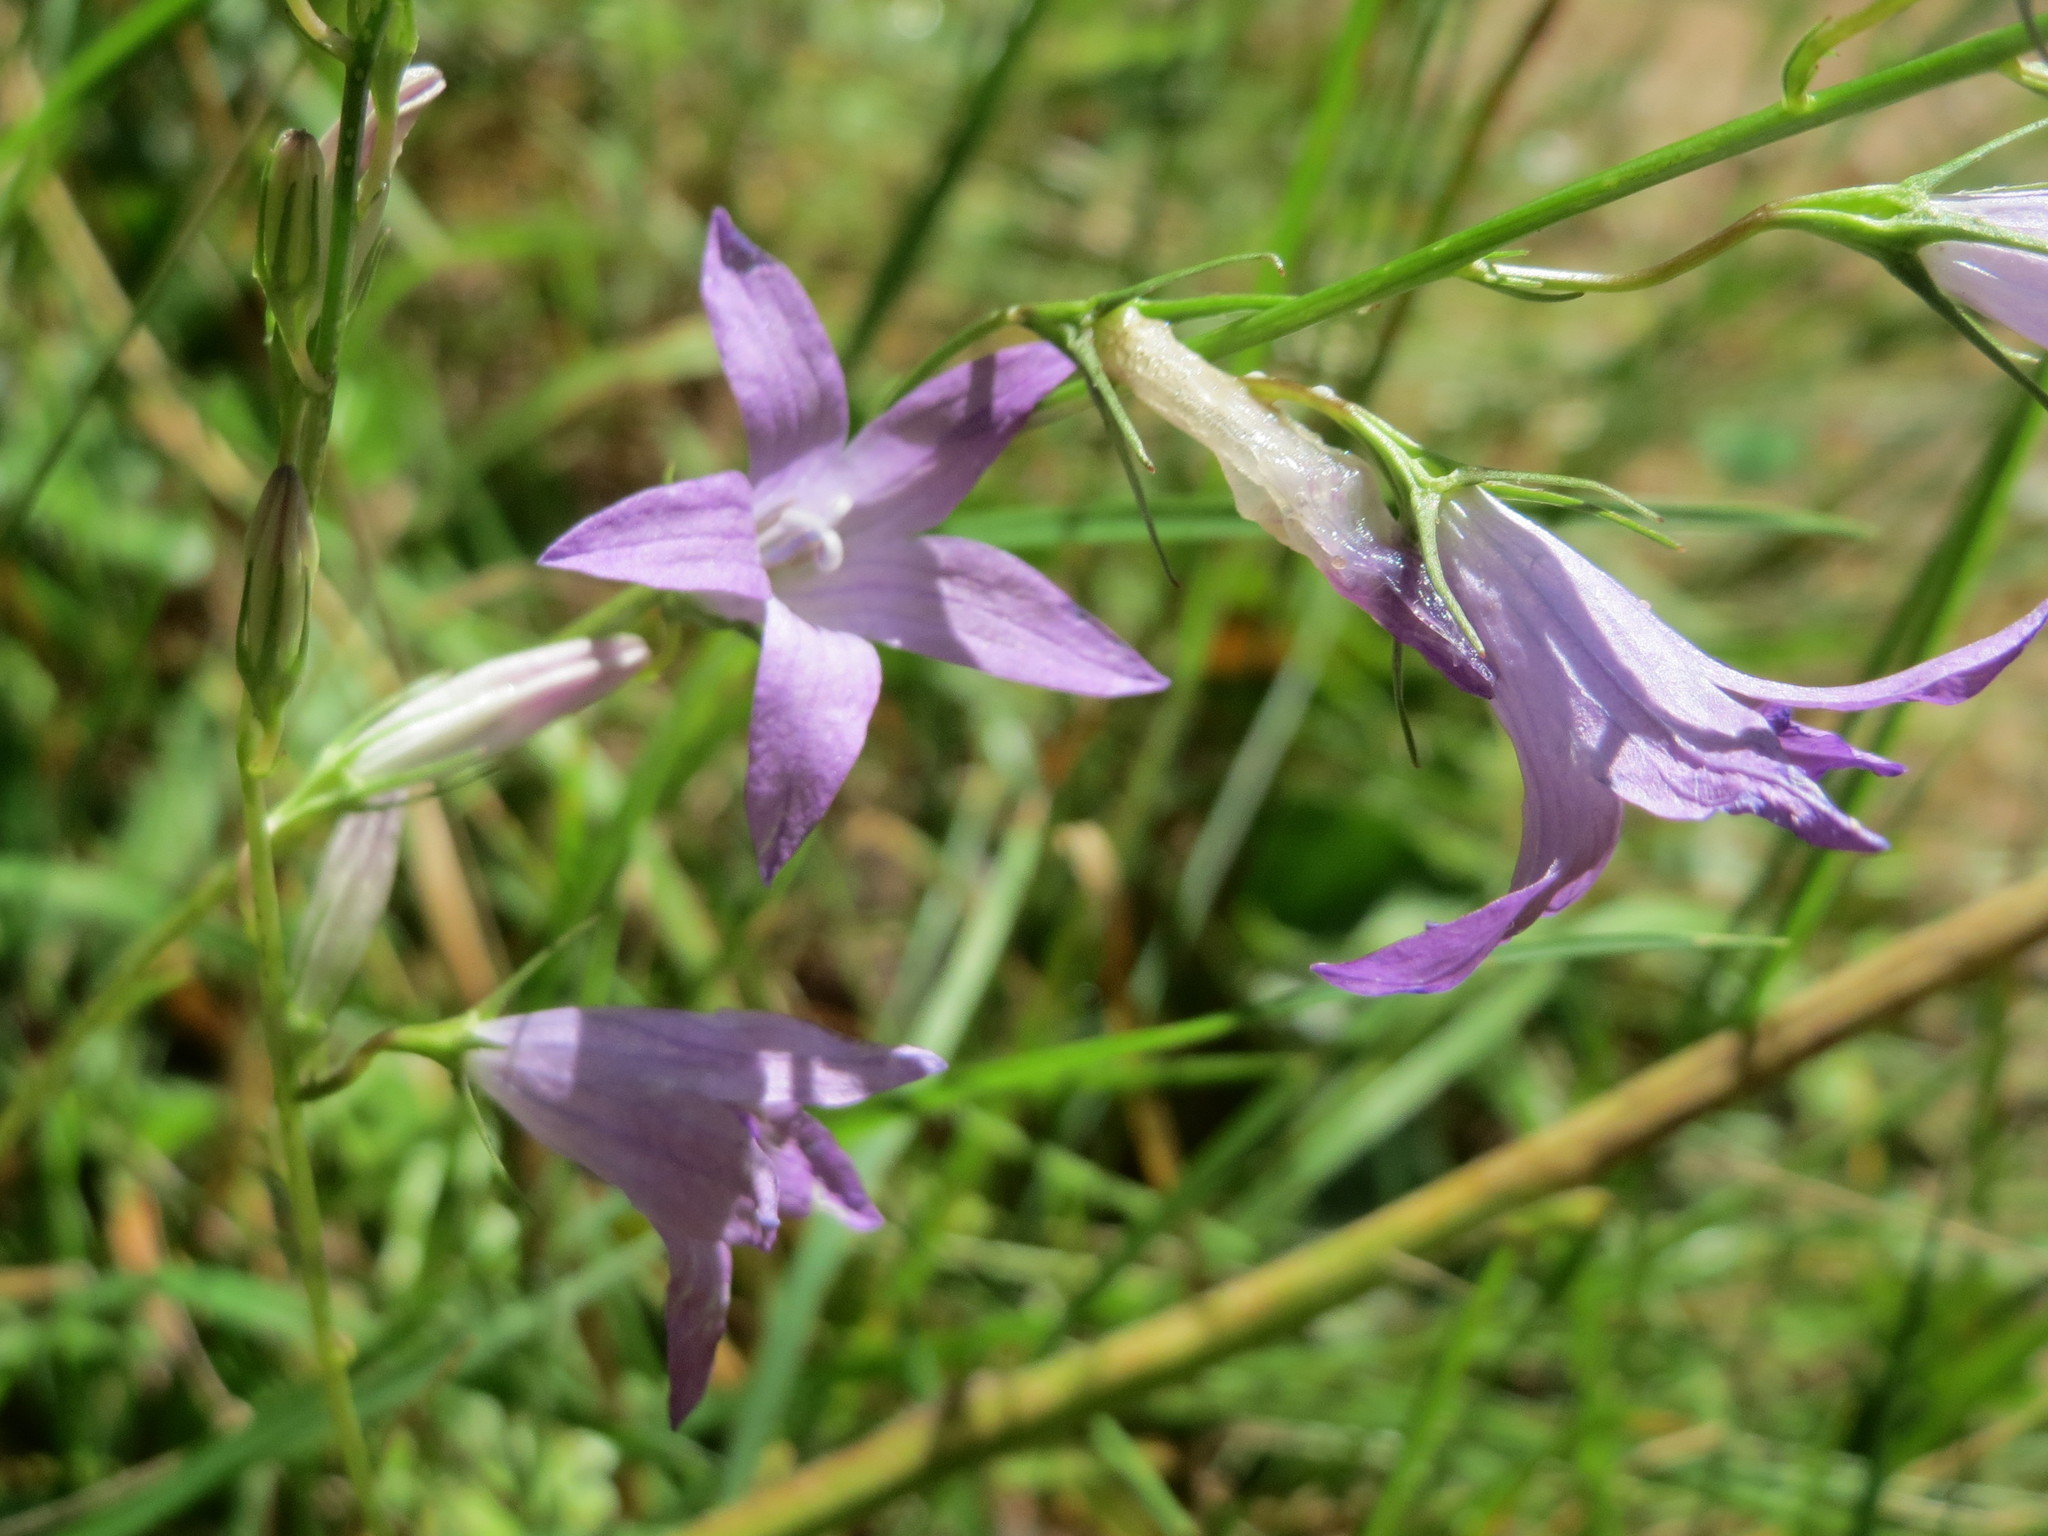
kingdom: Plantae
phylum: Tracheophyta
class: Magnoliopsida
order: Asterales
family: Campanulaceae
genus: Campanula
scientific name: Campanula rapunculus
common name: Rampion bellflower
